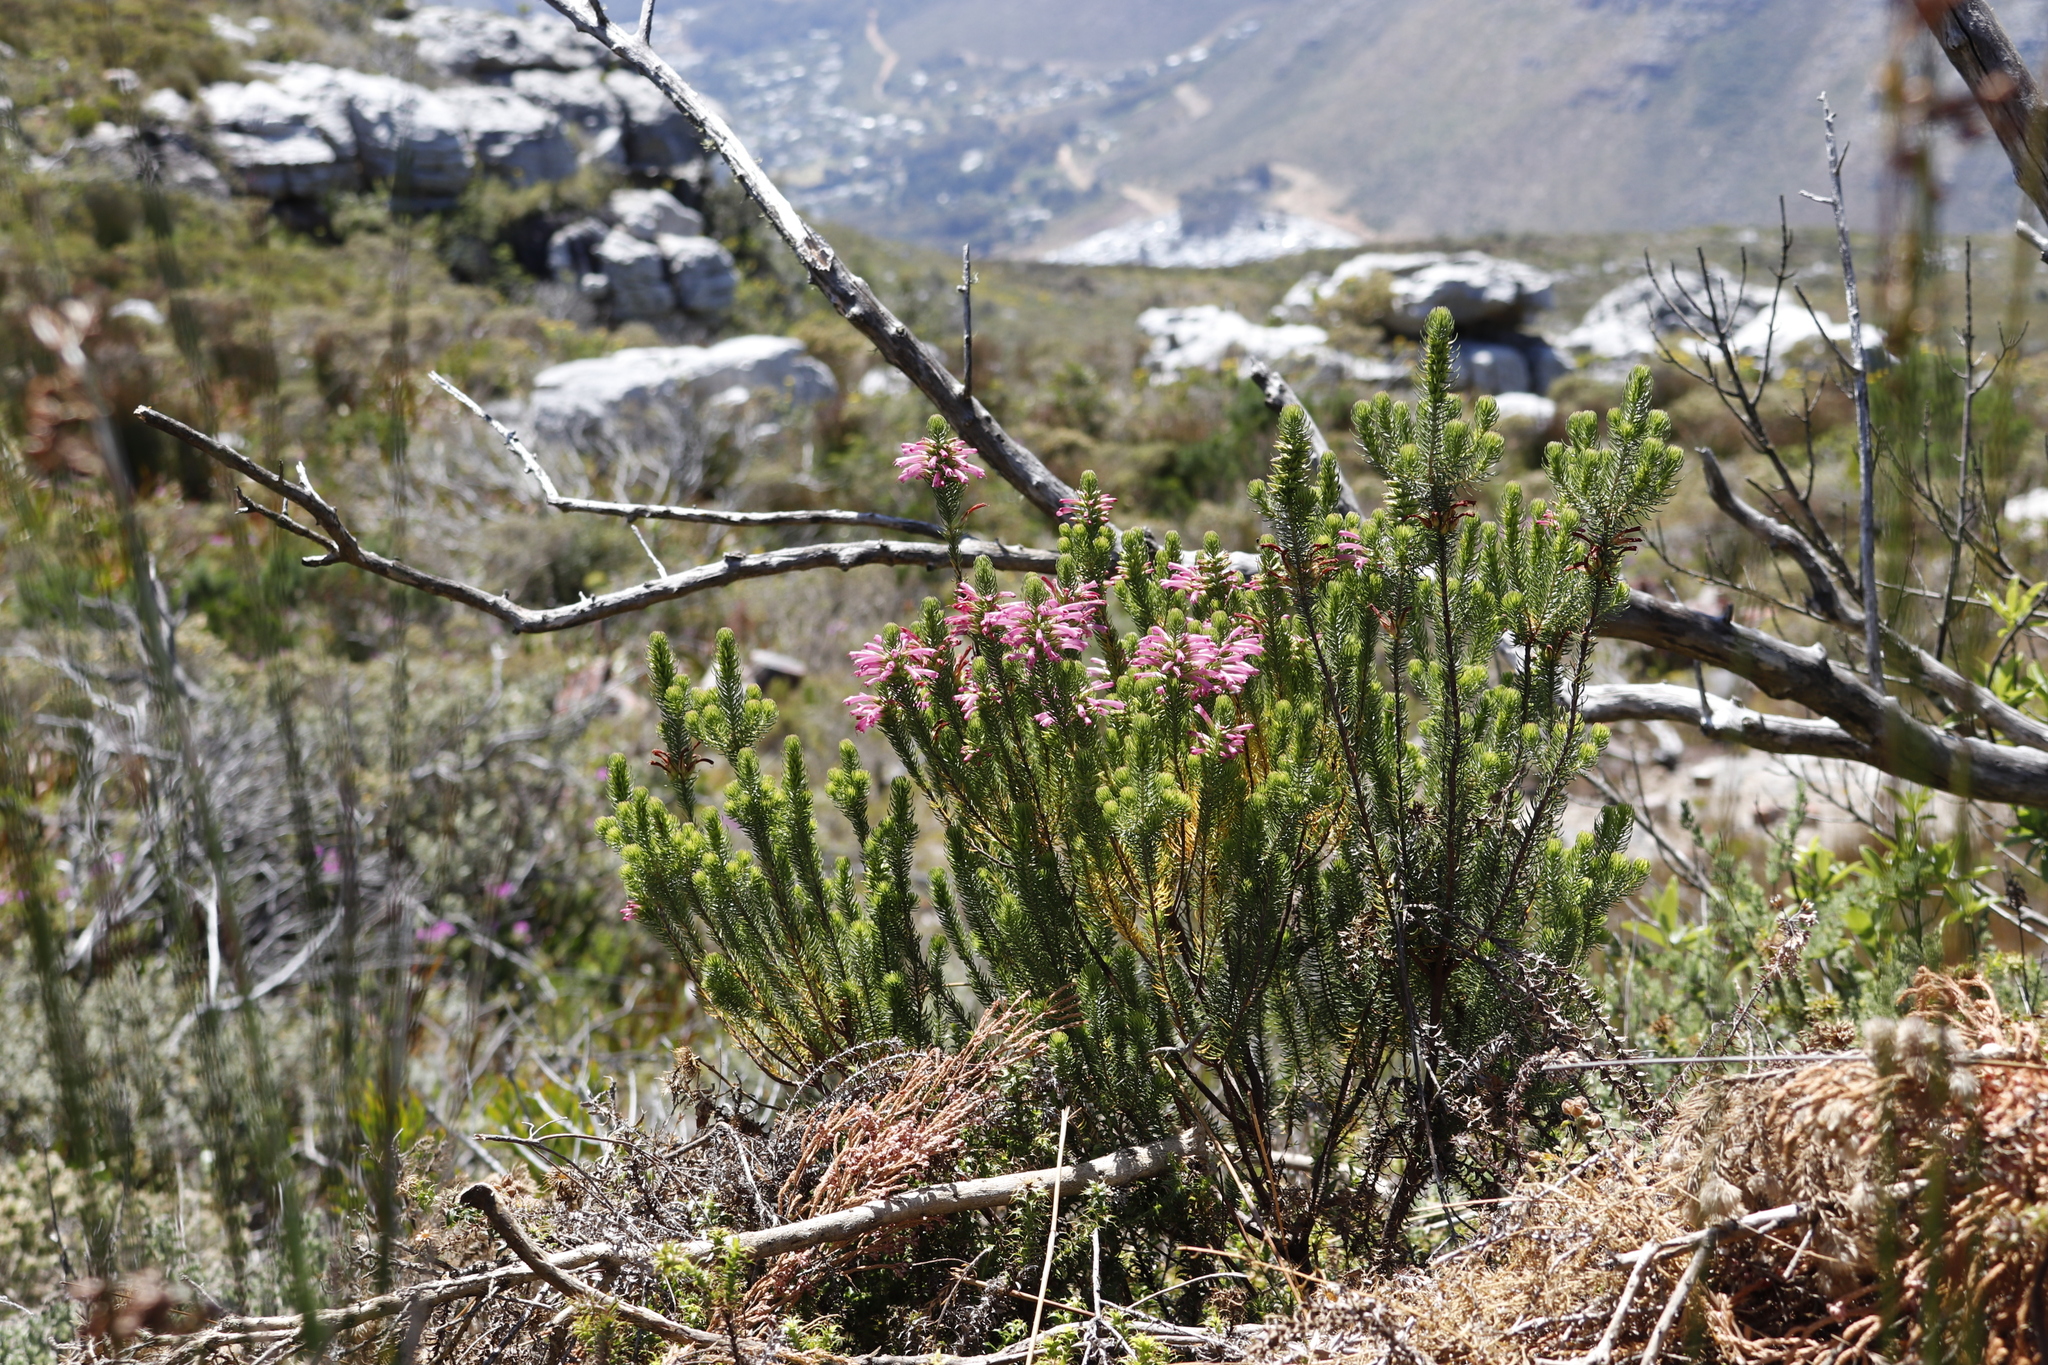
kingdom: Plantae
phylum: Tracheophyta
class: Magnoliopsida
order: Ericales
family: Ericaceae
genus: Erica
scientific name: Erica abietina
